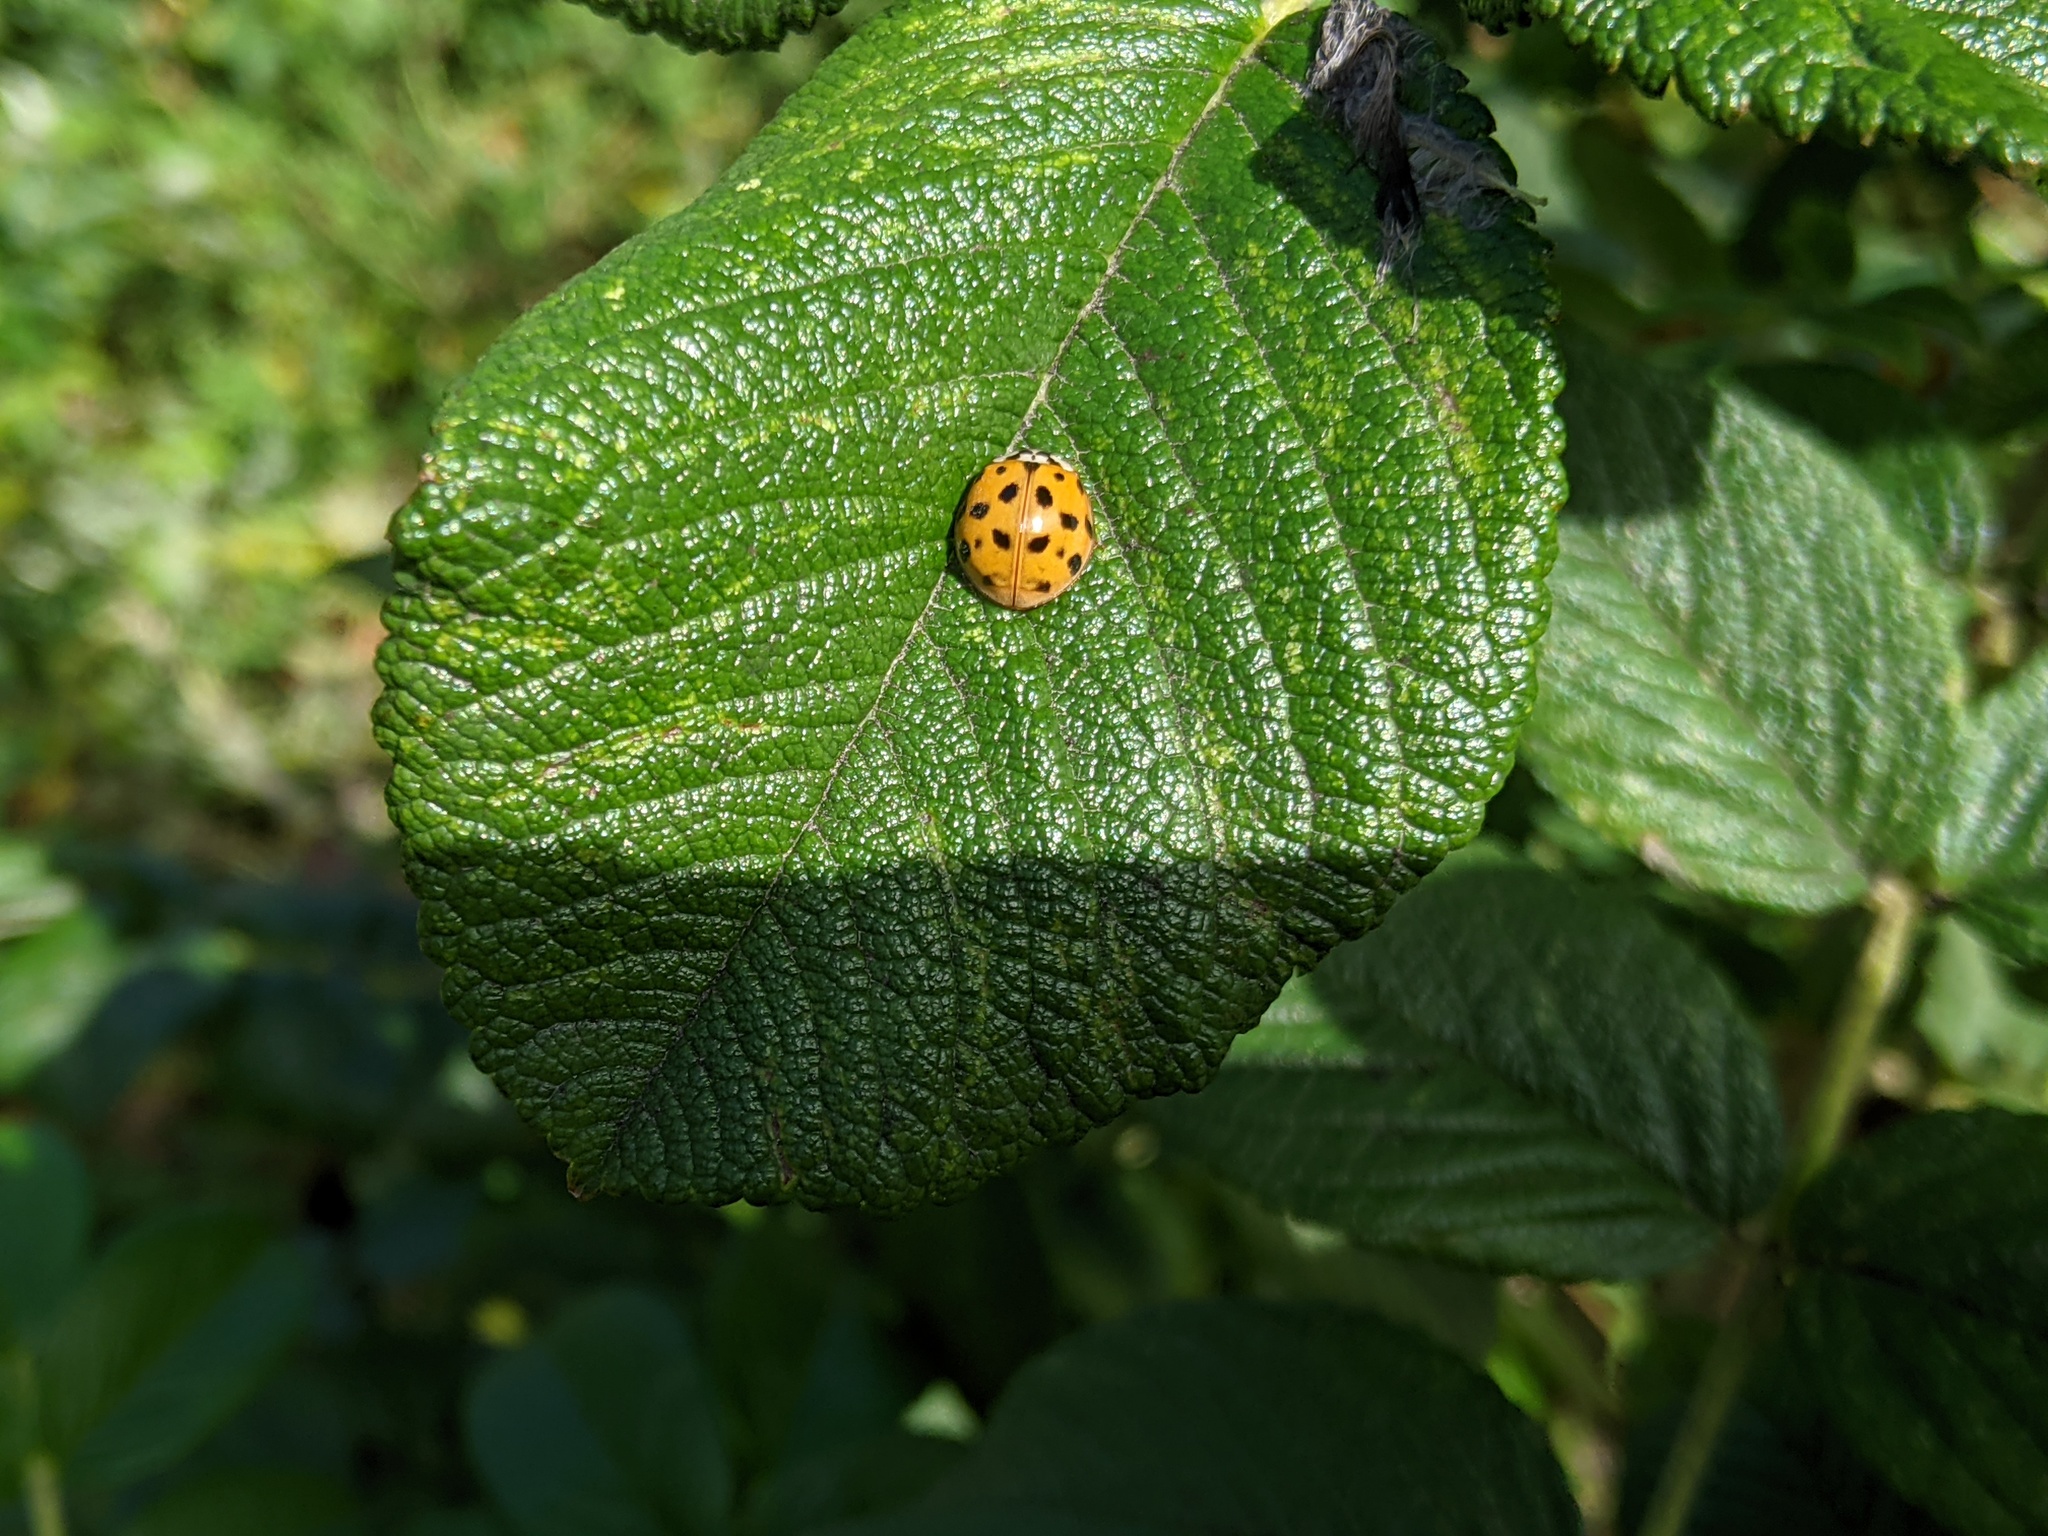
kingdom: Animalia
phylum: Arthropoda
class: Insecta
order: Coleoptera
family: Coccinellidae
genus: Harmonia
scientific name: Harmonia axyridis
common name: Harlequin ladybird
